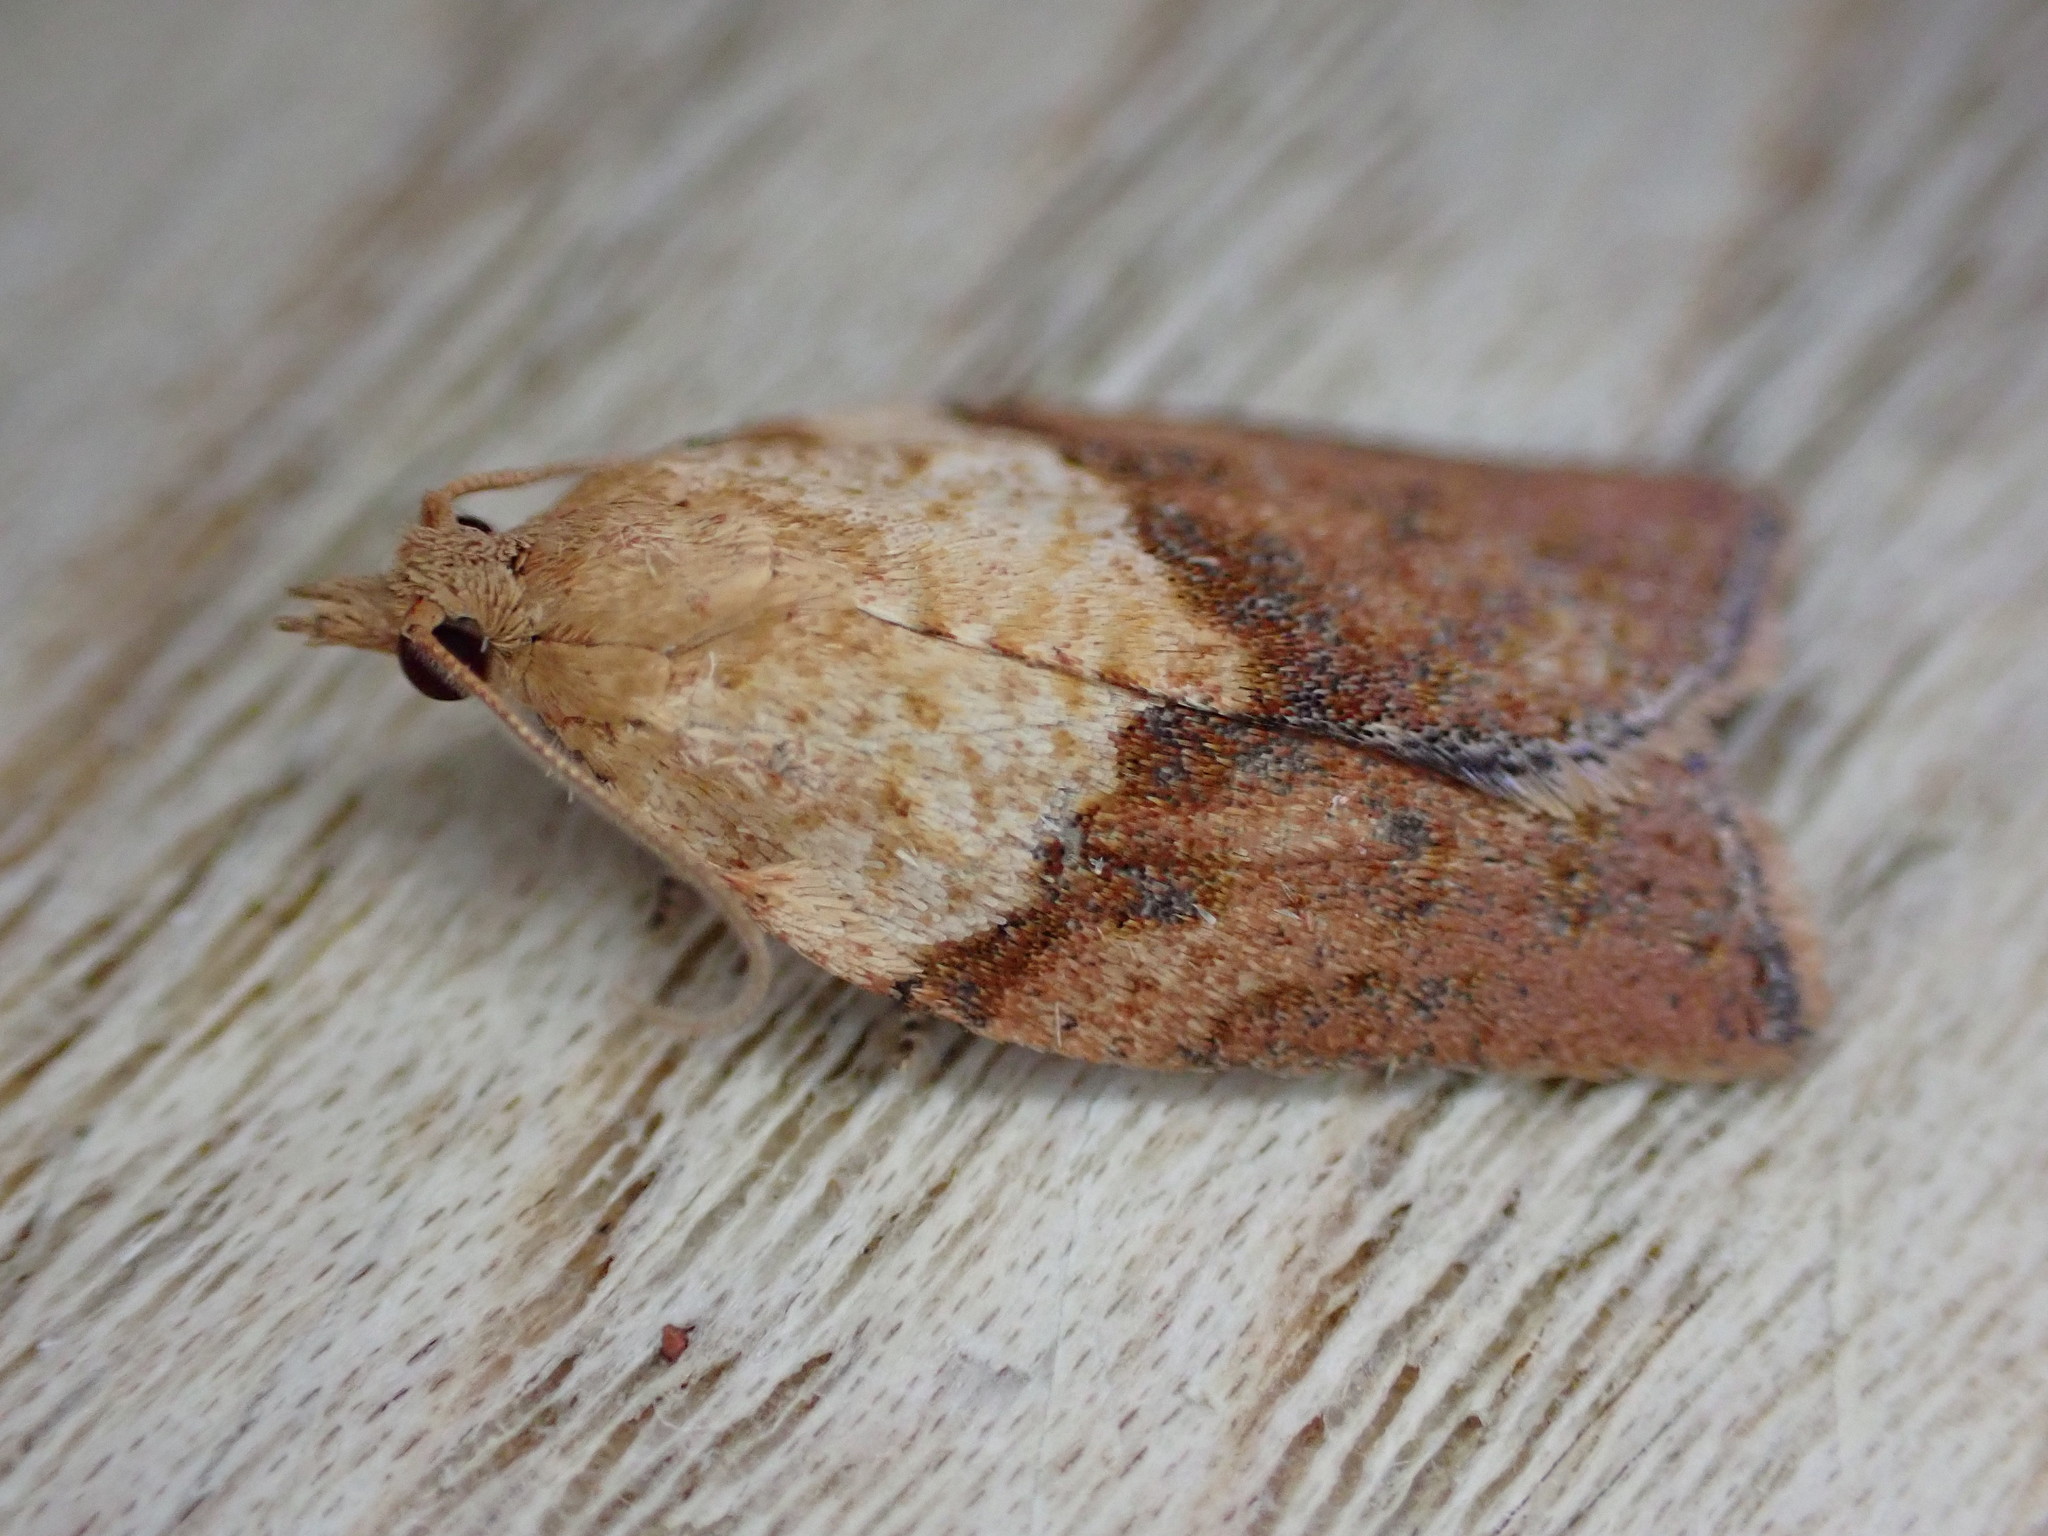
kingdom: Animalia
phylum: Arthropoda
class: Insecta
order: Lepidoptera
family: Tortricidae
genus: Epiphyas
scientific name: Epiphyas postvittana
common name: Light brown apple moth
